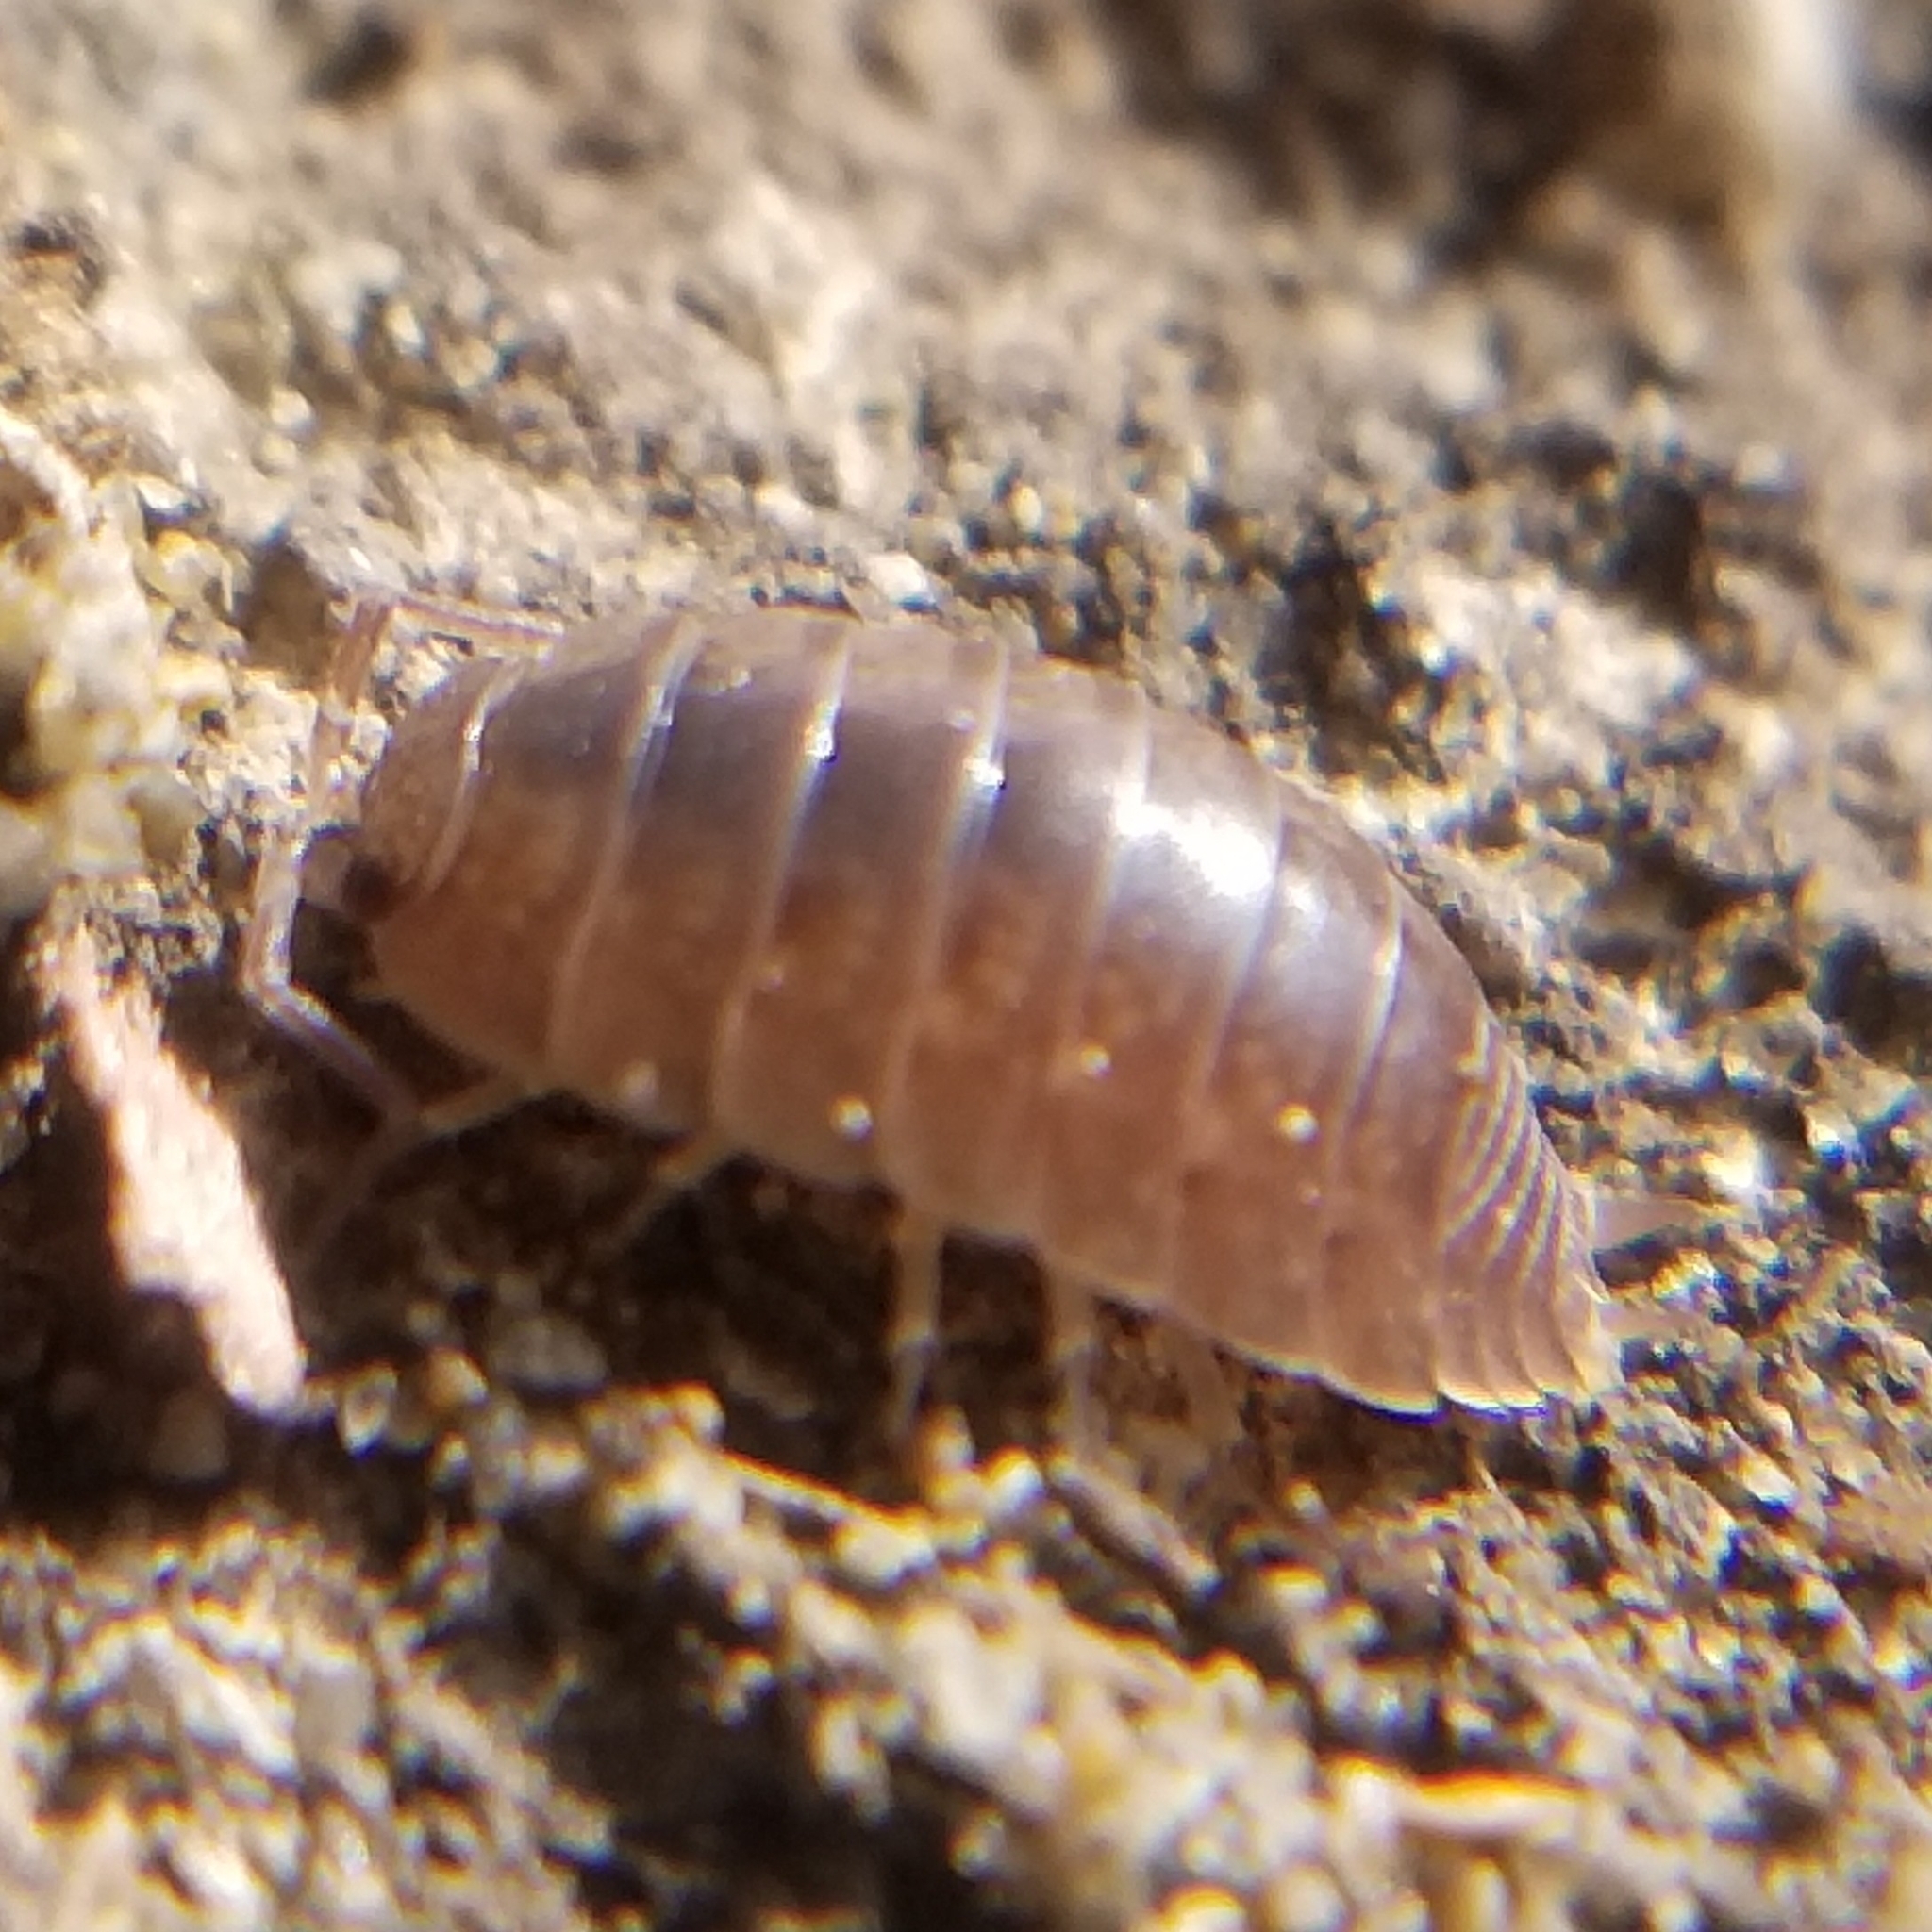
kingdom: Animalia
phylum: Arthropoda
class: Malacostraca
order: Isopoda
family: Porcellionidae
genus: Porcellio
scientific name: Porcellio laevis
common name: Swift woodlouse
